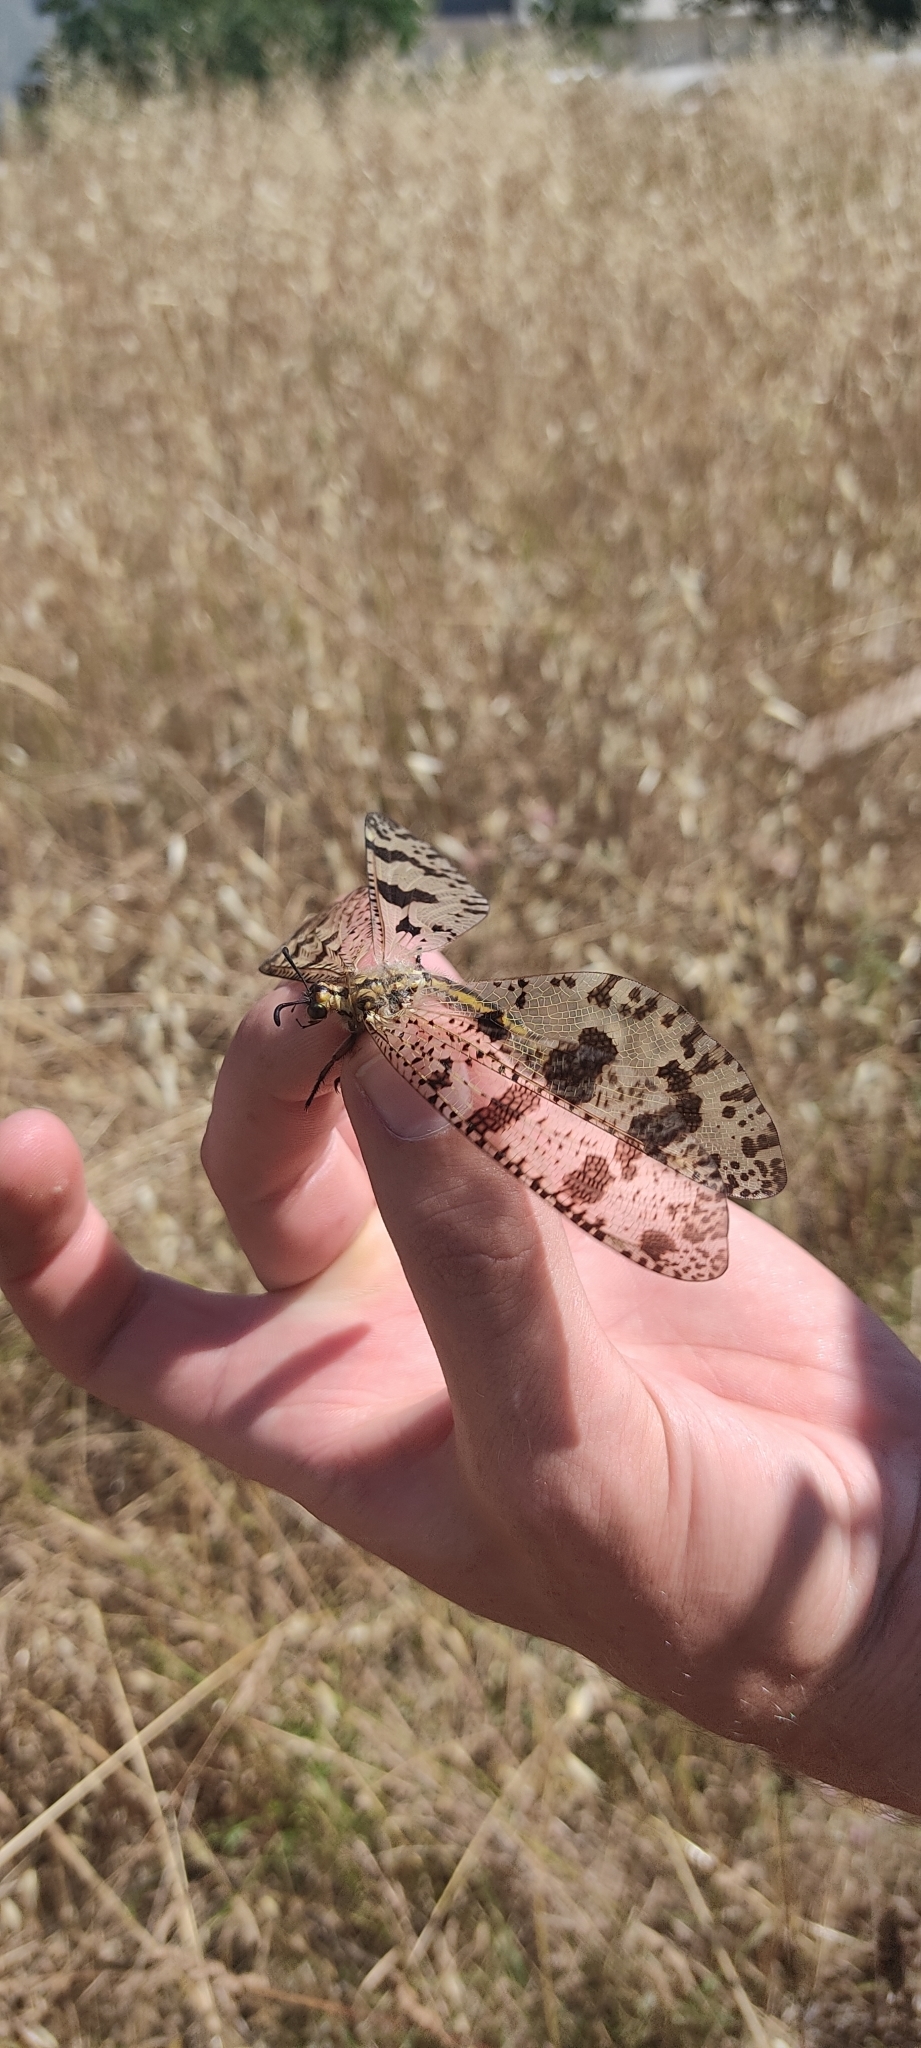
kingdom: Animalia
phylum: Arthropoda
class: Insecta
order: Neuroptera
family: Myrmeleontidae
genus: Palpares
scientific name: Palpares libelluloides
